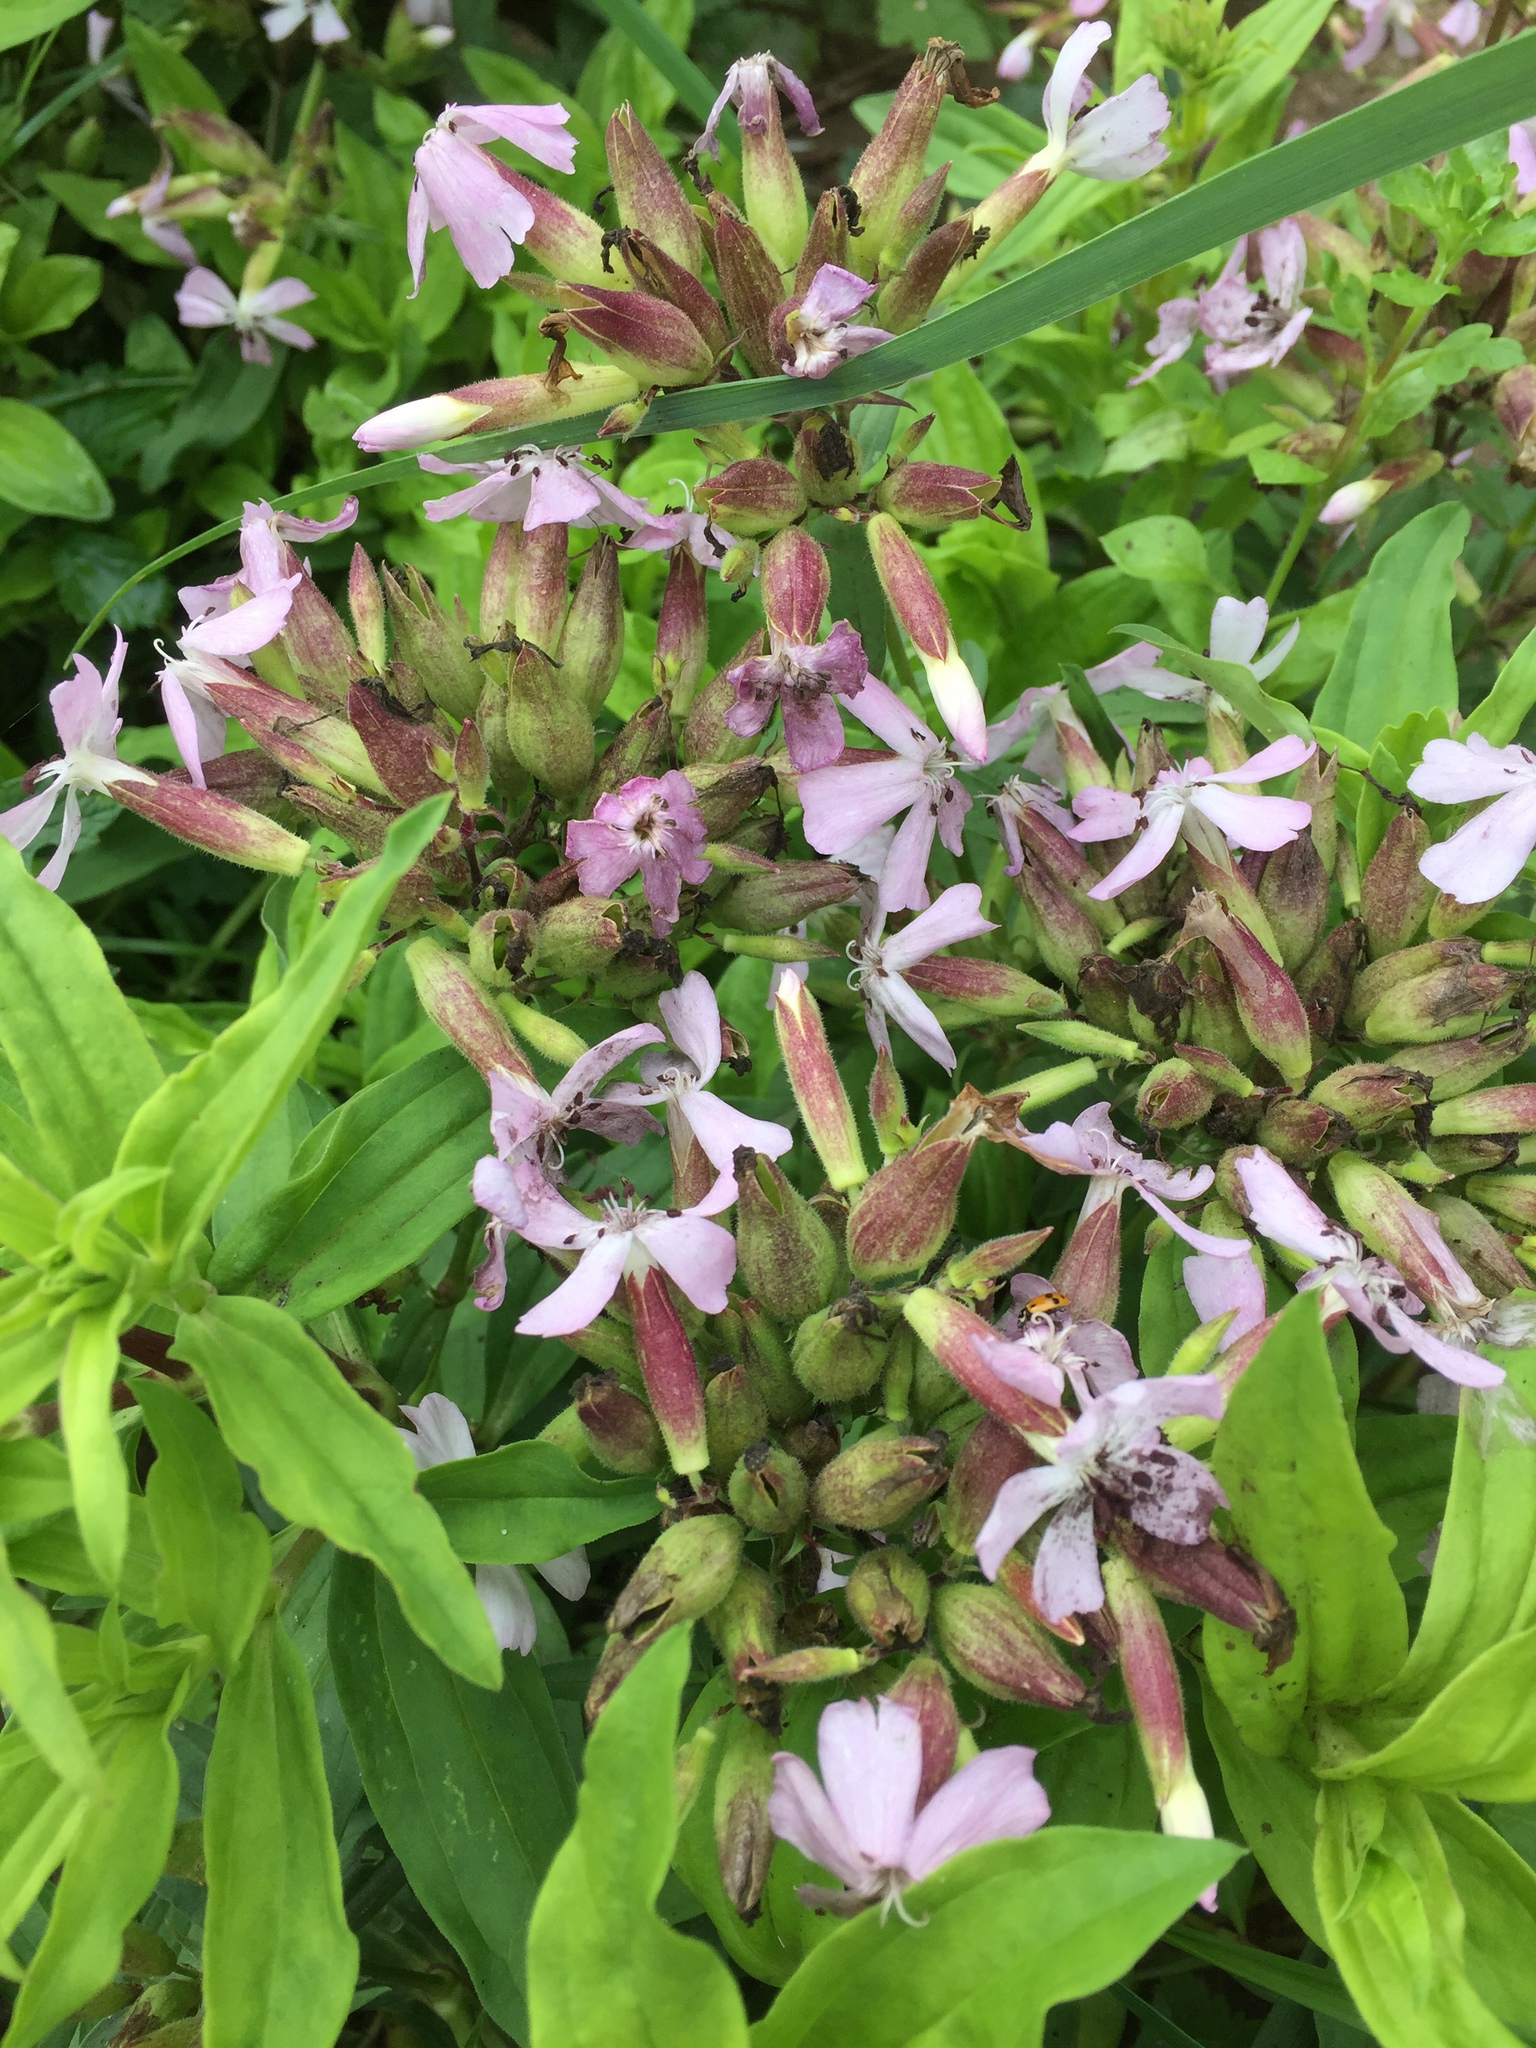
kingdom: Plantae
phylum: Tracheophyta
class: Magnoliopsida
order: Caryophyllales
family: Caryophyllaceae
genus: Saponaria
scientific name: Saponaria officinalis
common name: Soapwort
